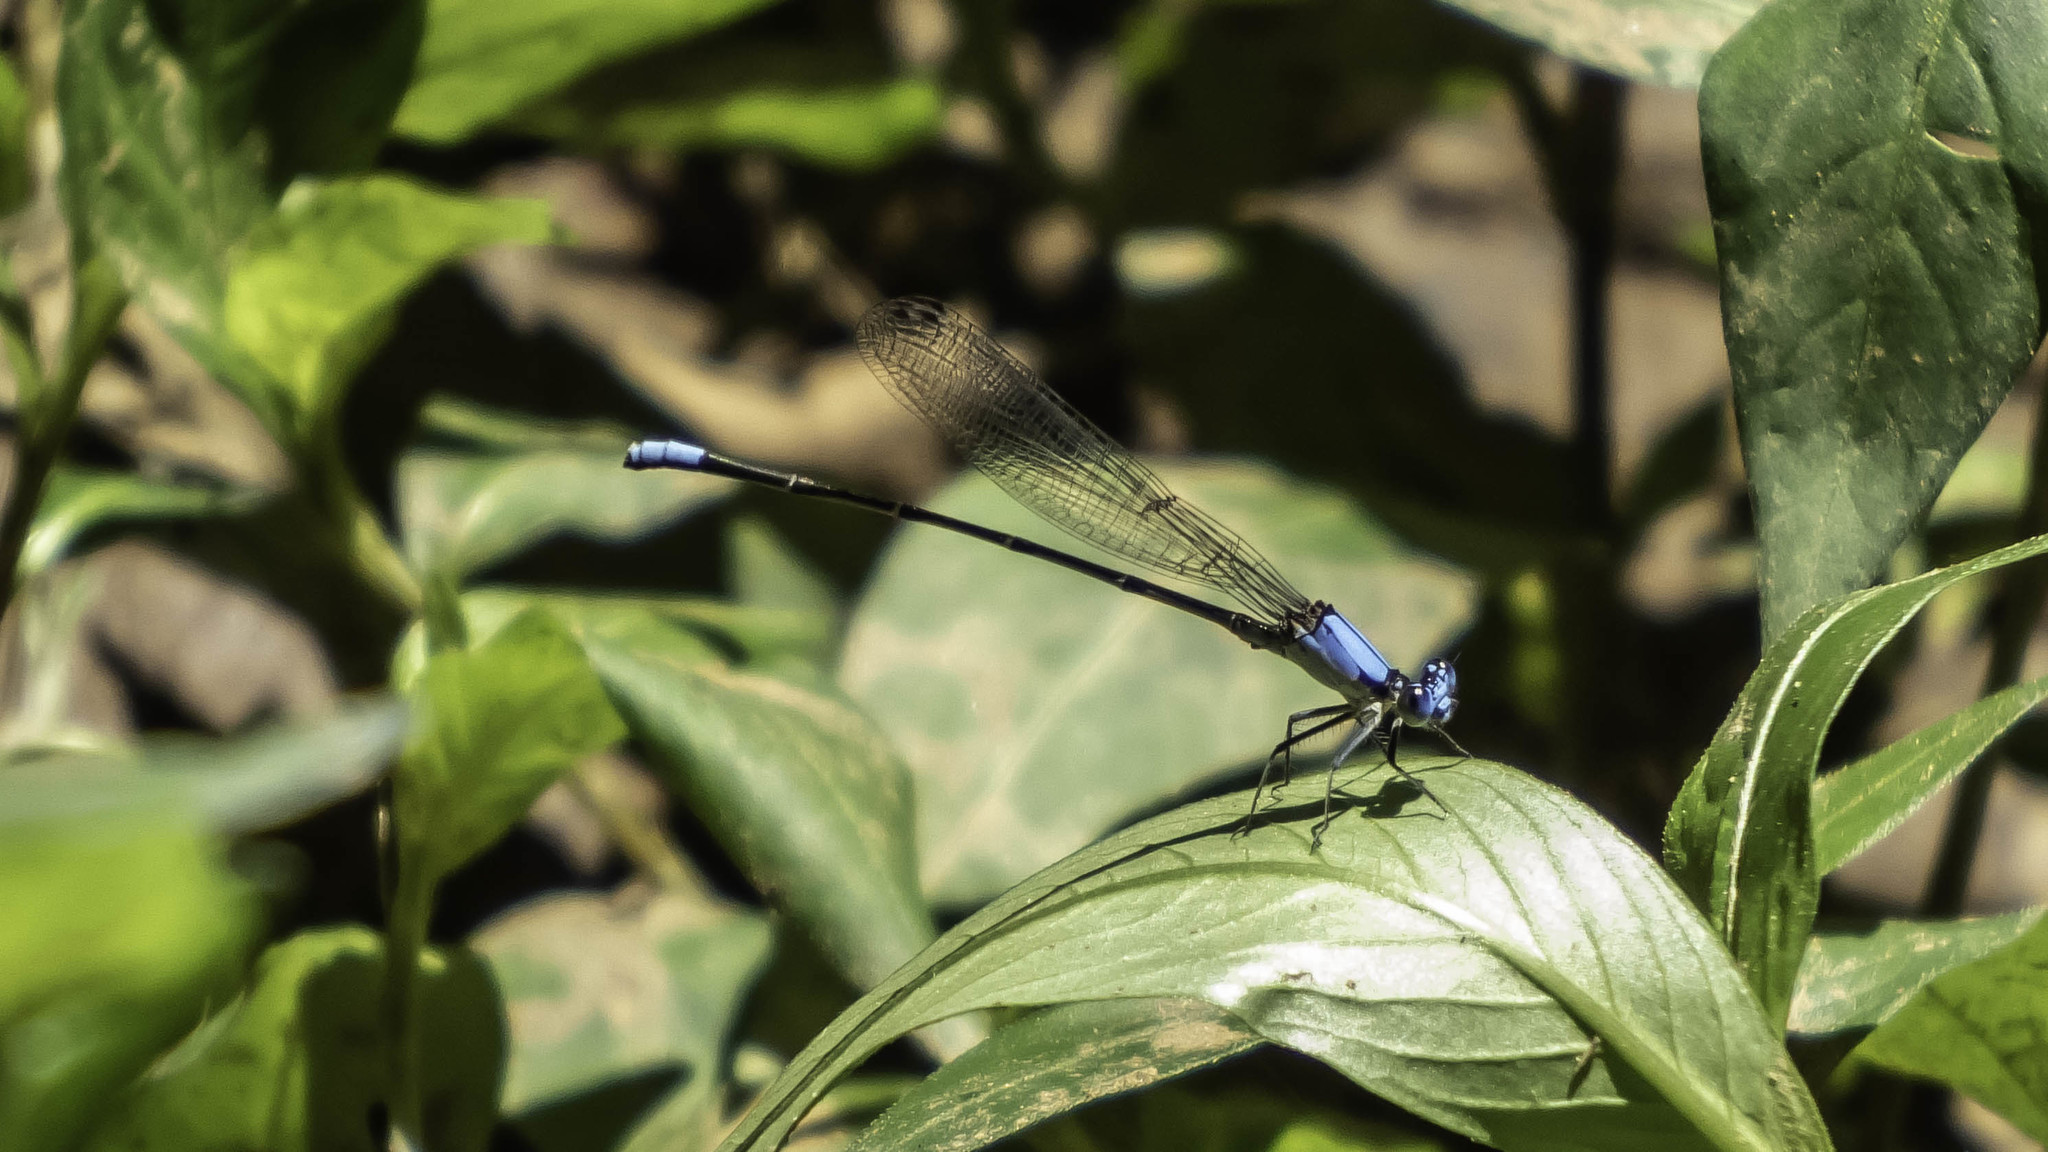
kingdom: Animalia
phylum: Arthropoda
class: Insecta
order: Odonata
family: Coenagrionidae
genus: Argia
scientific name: Argia apicalis
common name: Blue-fronted dancer
